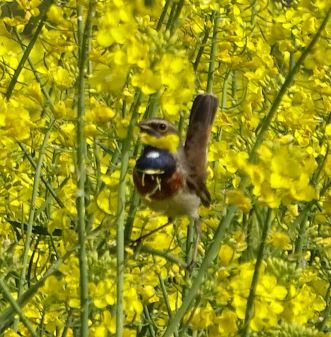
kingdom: Animalia
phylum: Chordata
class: Aves
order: Passeriformes
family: Muscicapidae
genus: Luscinia
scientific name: Luscinia svecica
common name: Bluethroat
